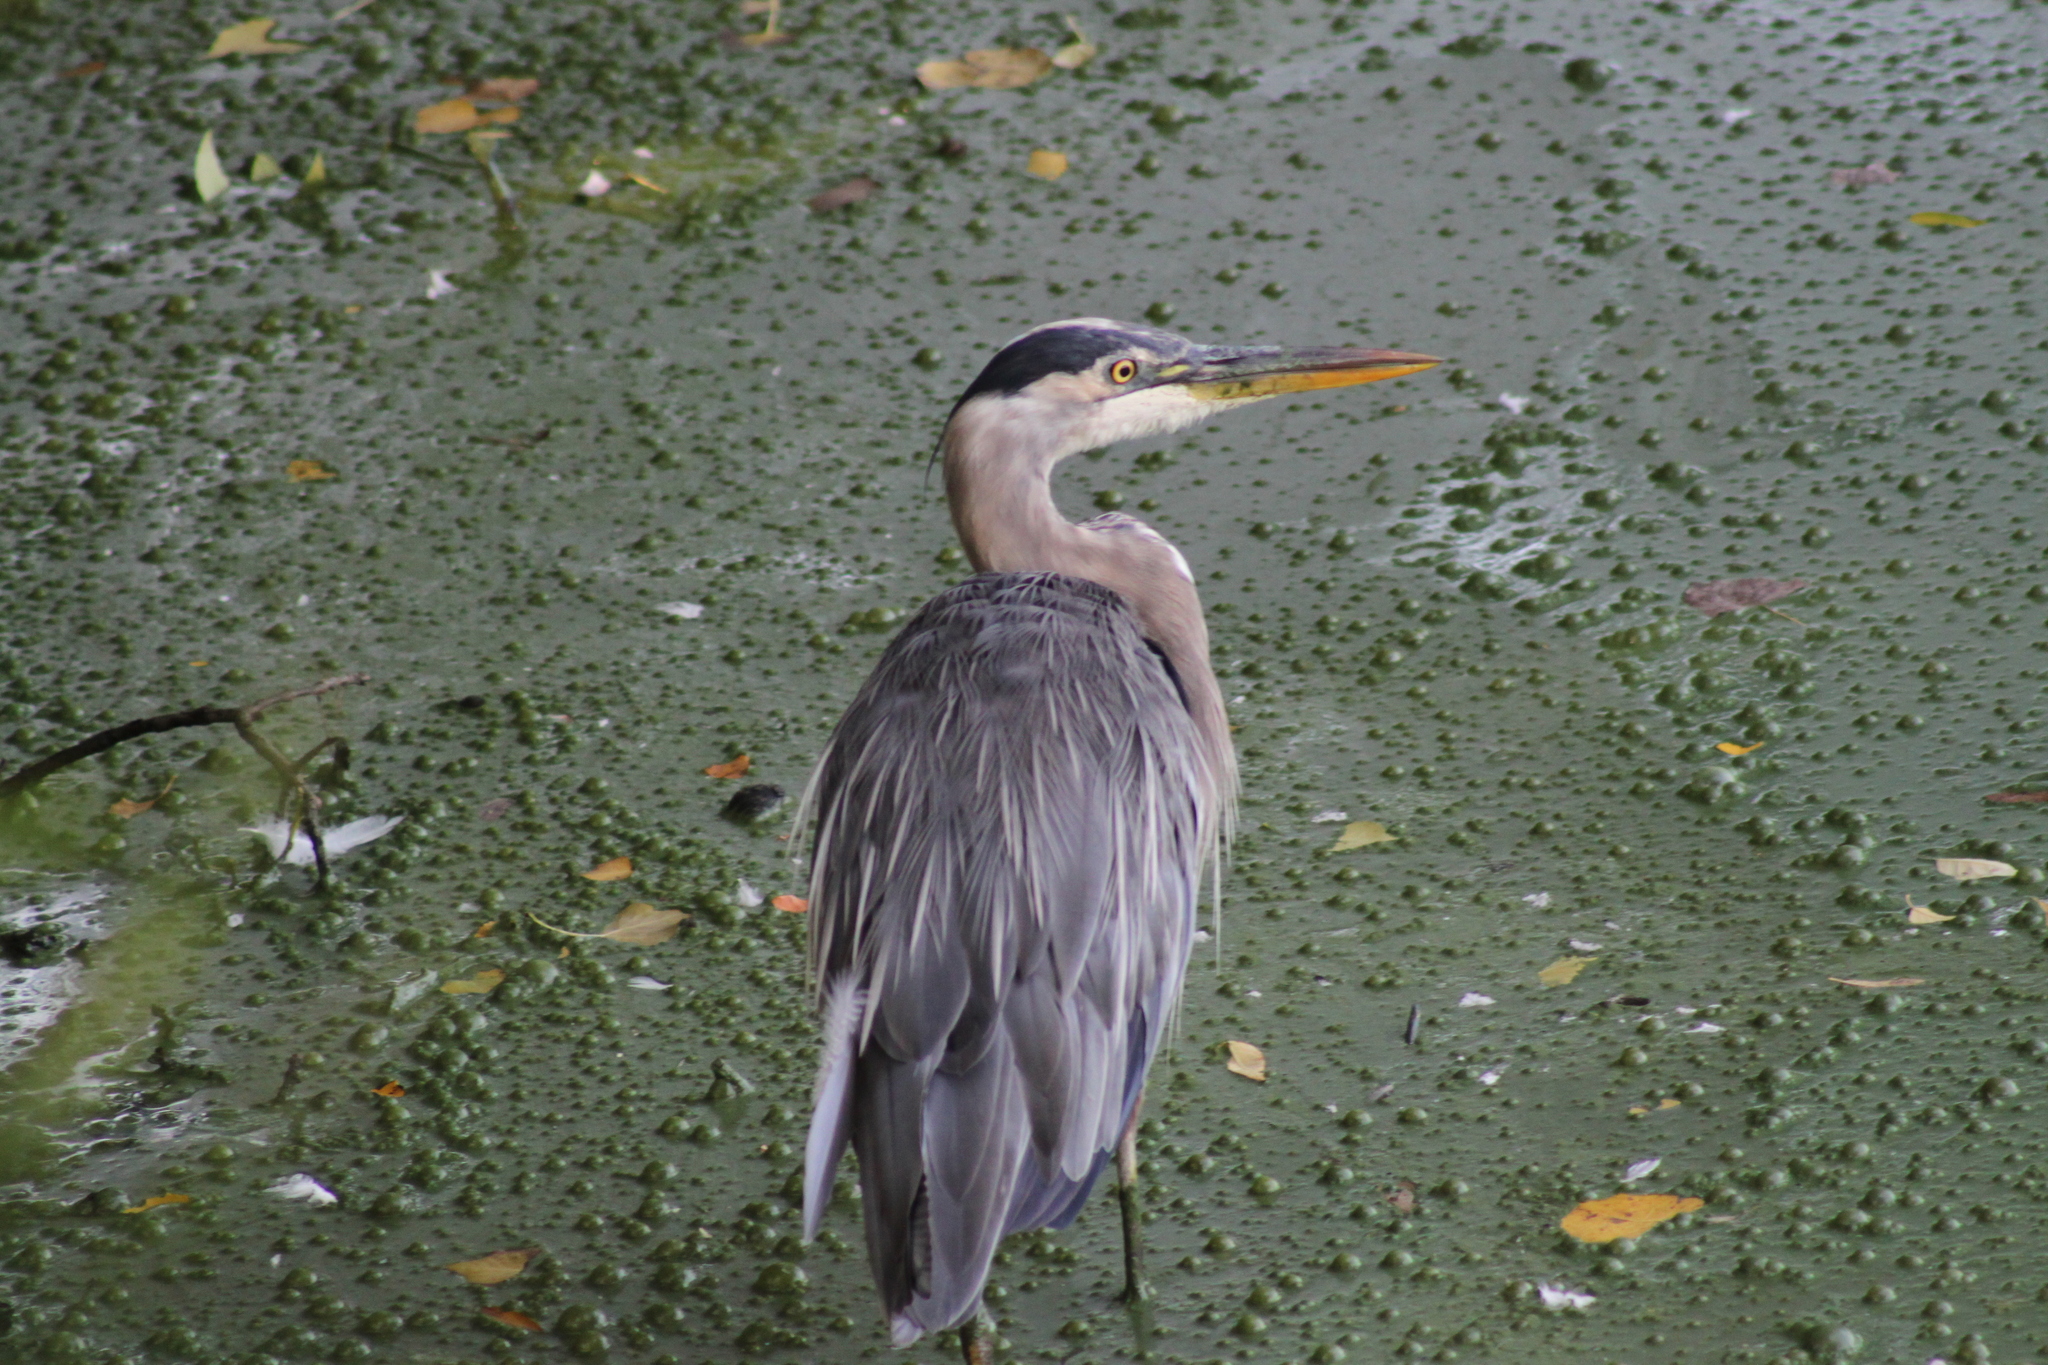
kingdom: Animalia
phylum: Chordata
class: Aves
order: Pelecaniformes
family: Ardeidae
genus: Ardea
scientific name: Ardea herodias
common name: Great blue heron
